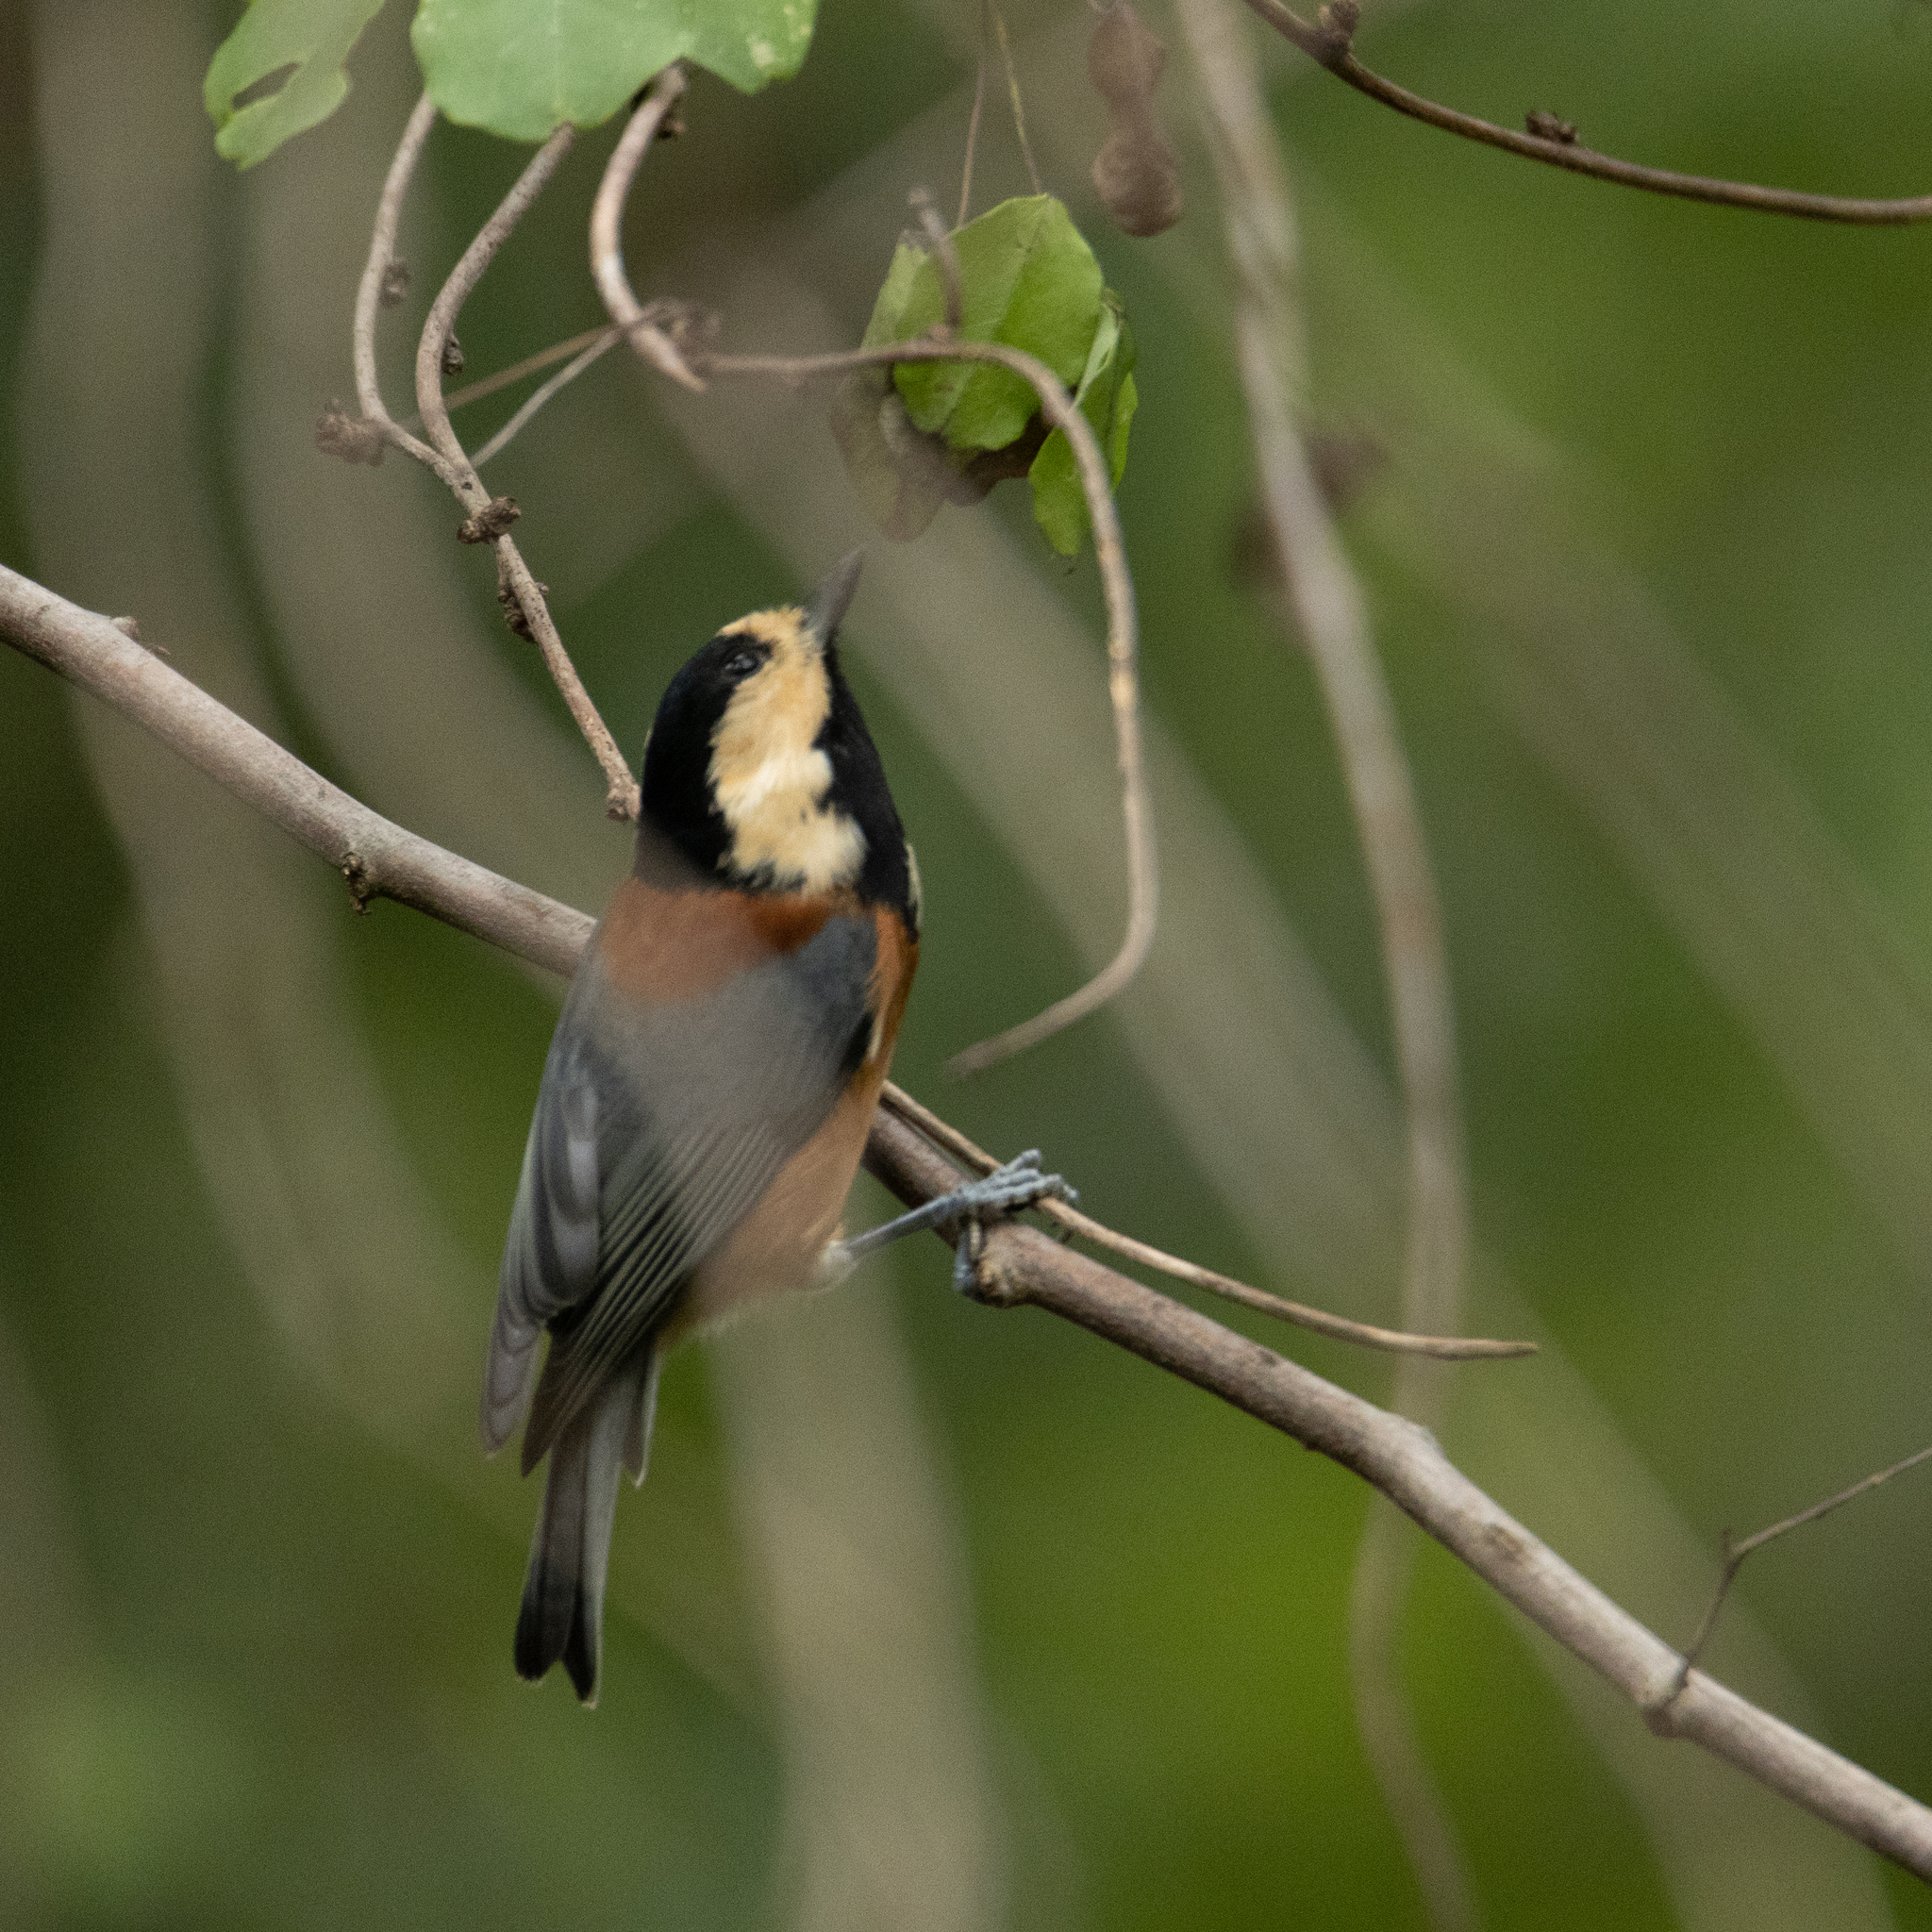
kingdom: Animalia
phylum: Chordata
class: Aves
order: Passeriformes
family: Paridae
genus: Poecile
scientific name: Poecile varius
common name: Varied tit
